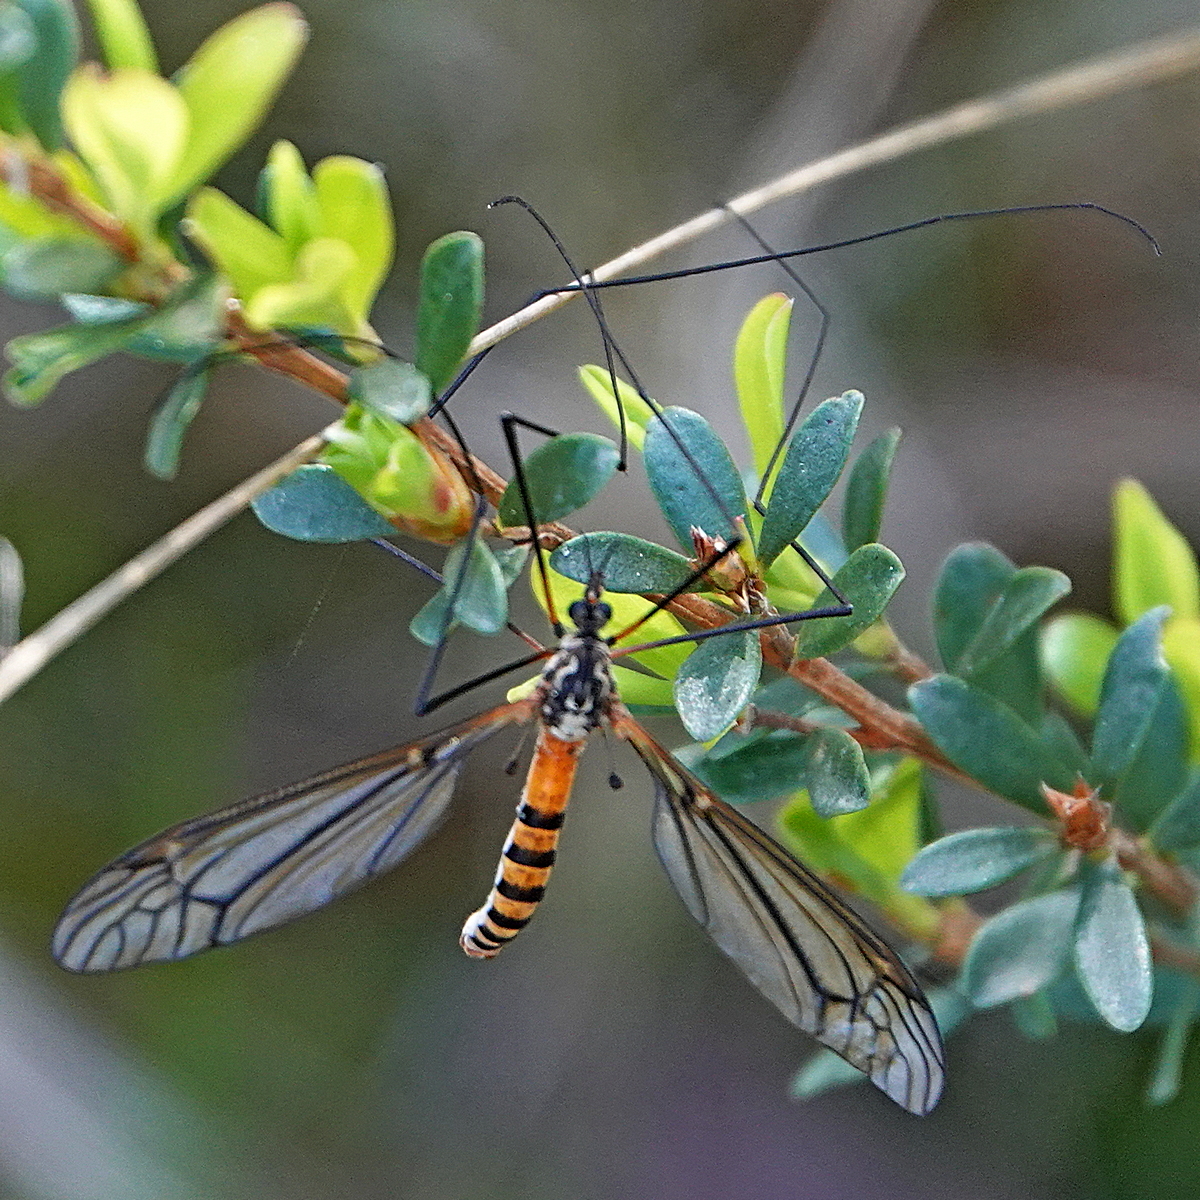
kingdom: Animalia
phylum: Arthropoda
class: Insecta
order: Diptera
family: Tipulidae
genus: Ischnotoma
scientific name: Ischnotoma rubriventris
